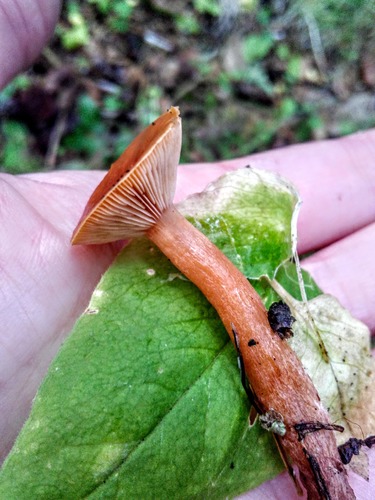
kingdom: Fungi
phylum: Basidiomycota
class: Agaricomycetes
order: Russulales
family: Russulaceae
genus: Lactarius
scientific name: Lactarius rufus
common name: Rufous milk-cap
